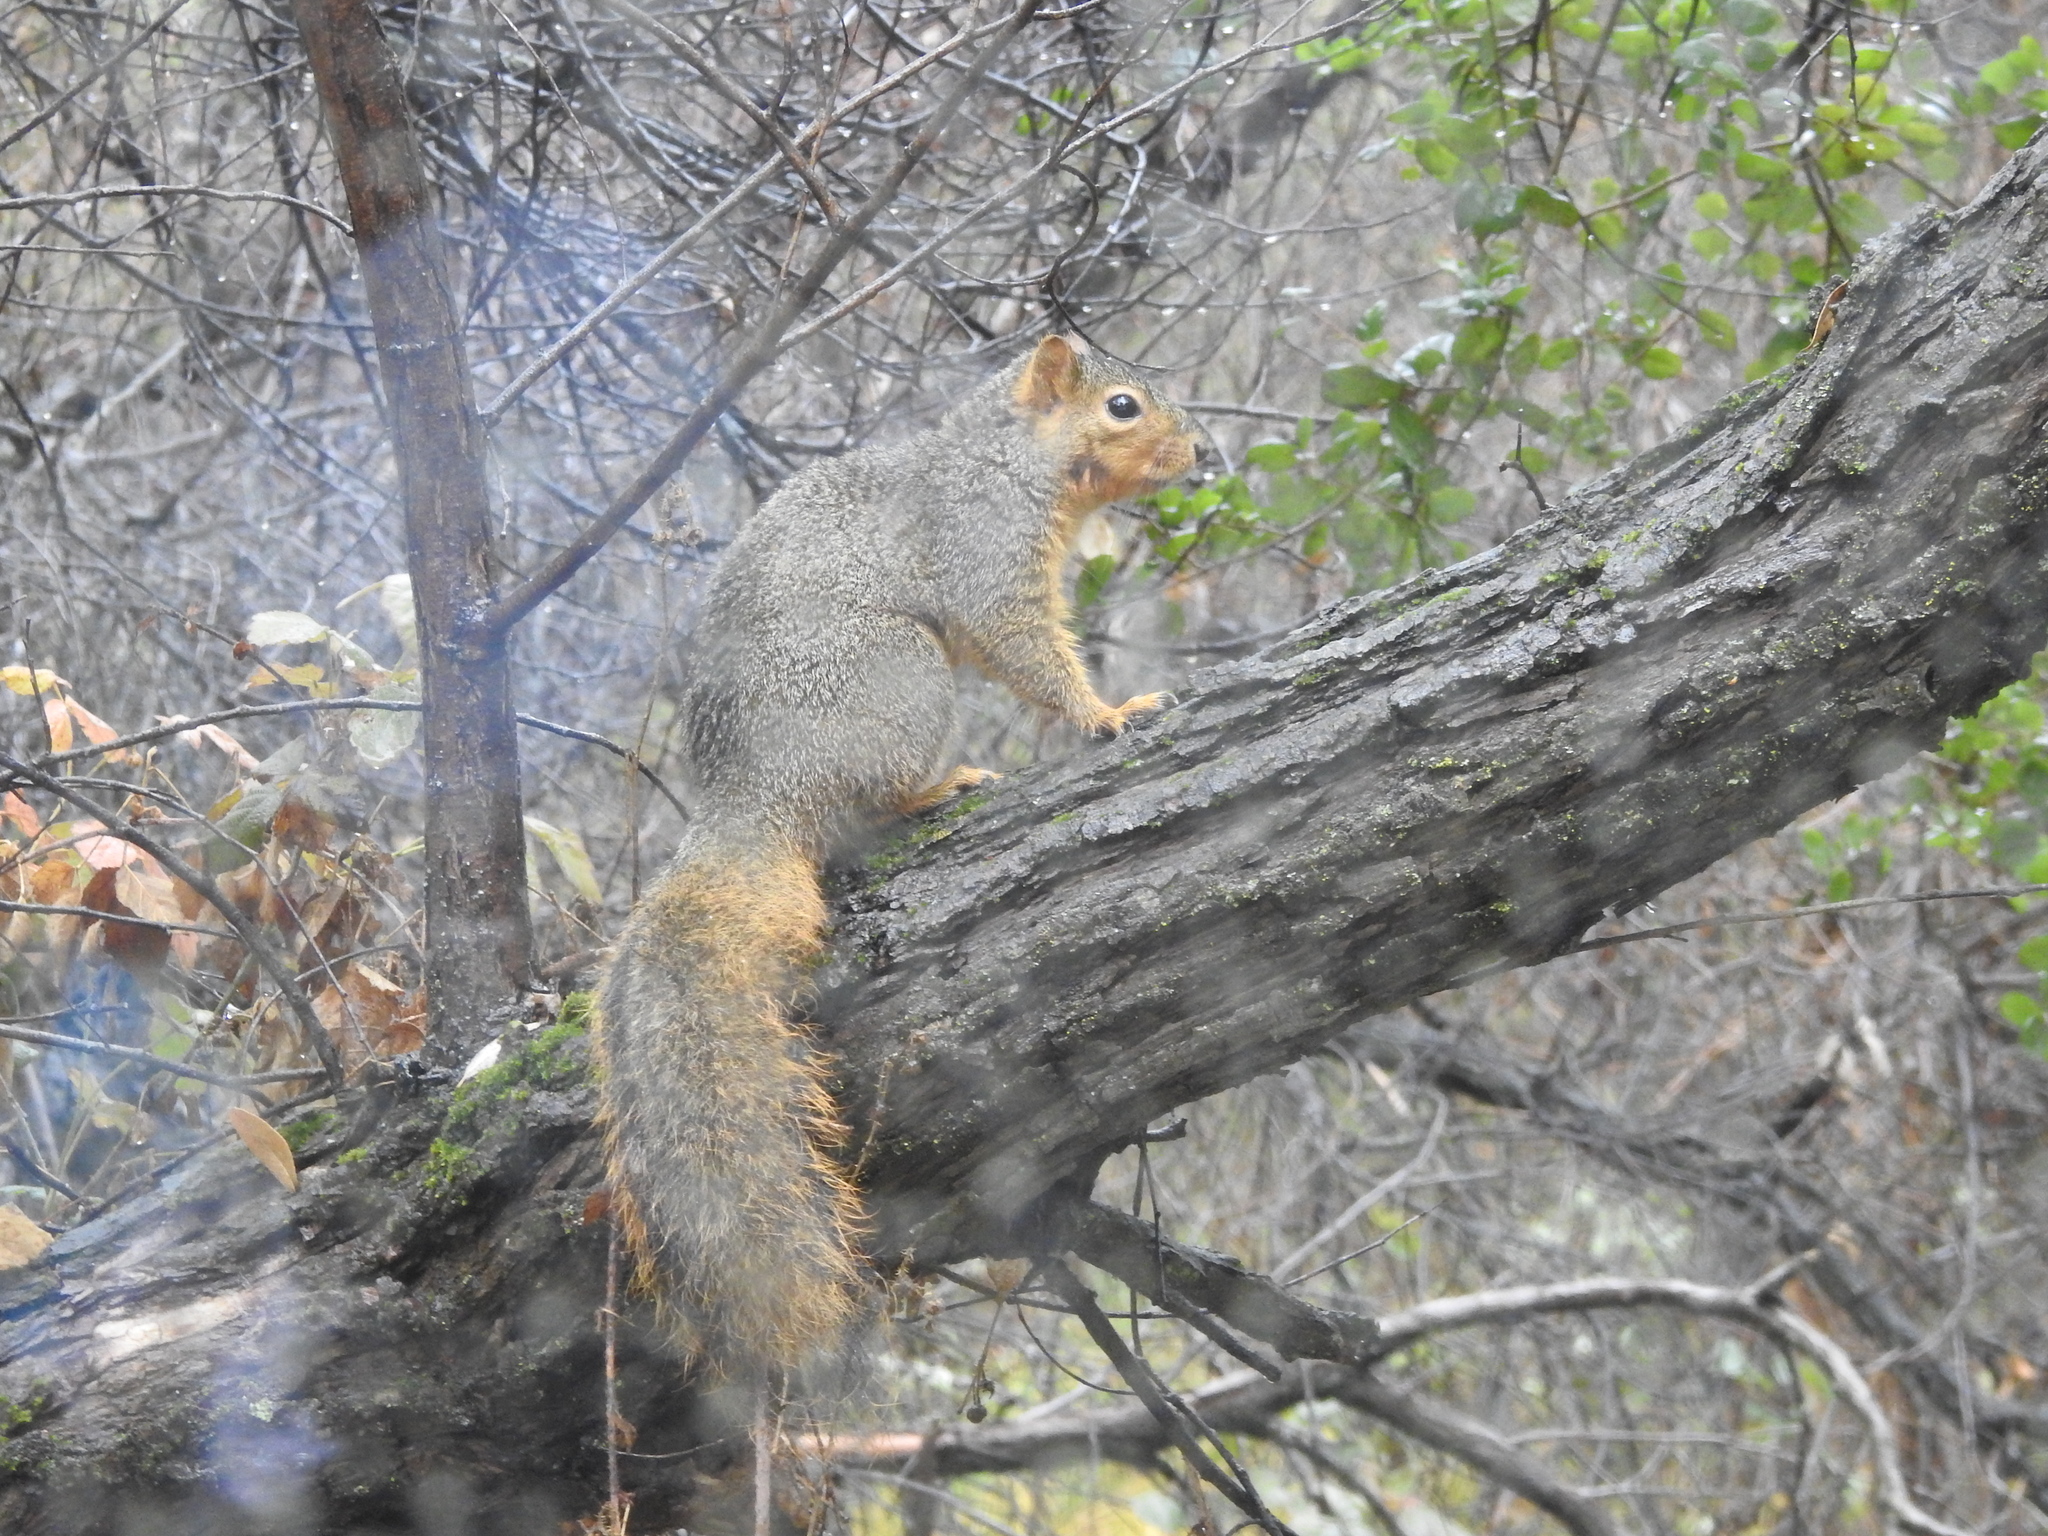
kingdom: Animalia
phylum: Chordata
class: Mammalia
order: Rodentia
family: Sciuridae
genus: Sciurus
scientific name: Sciurus niger
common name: Fox squirrel
